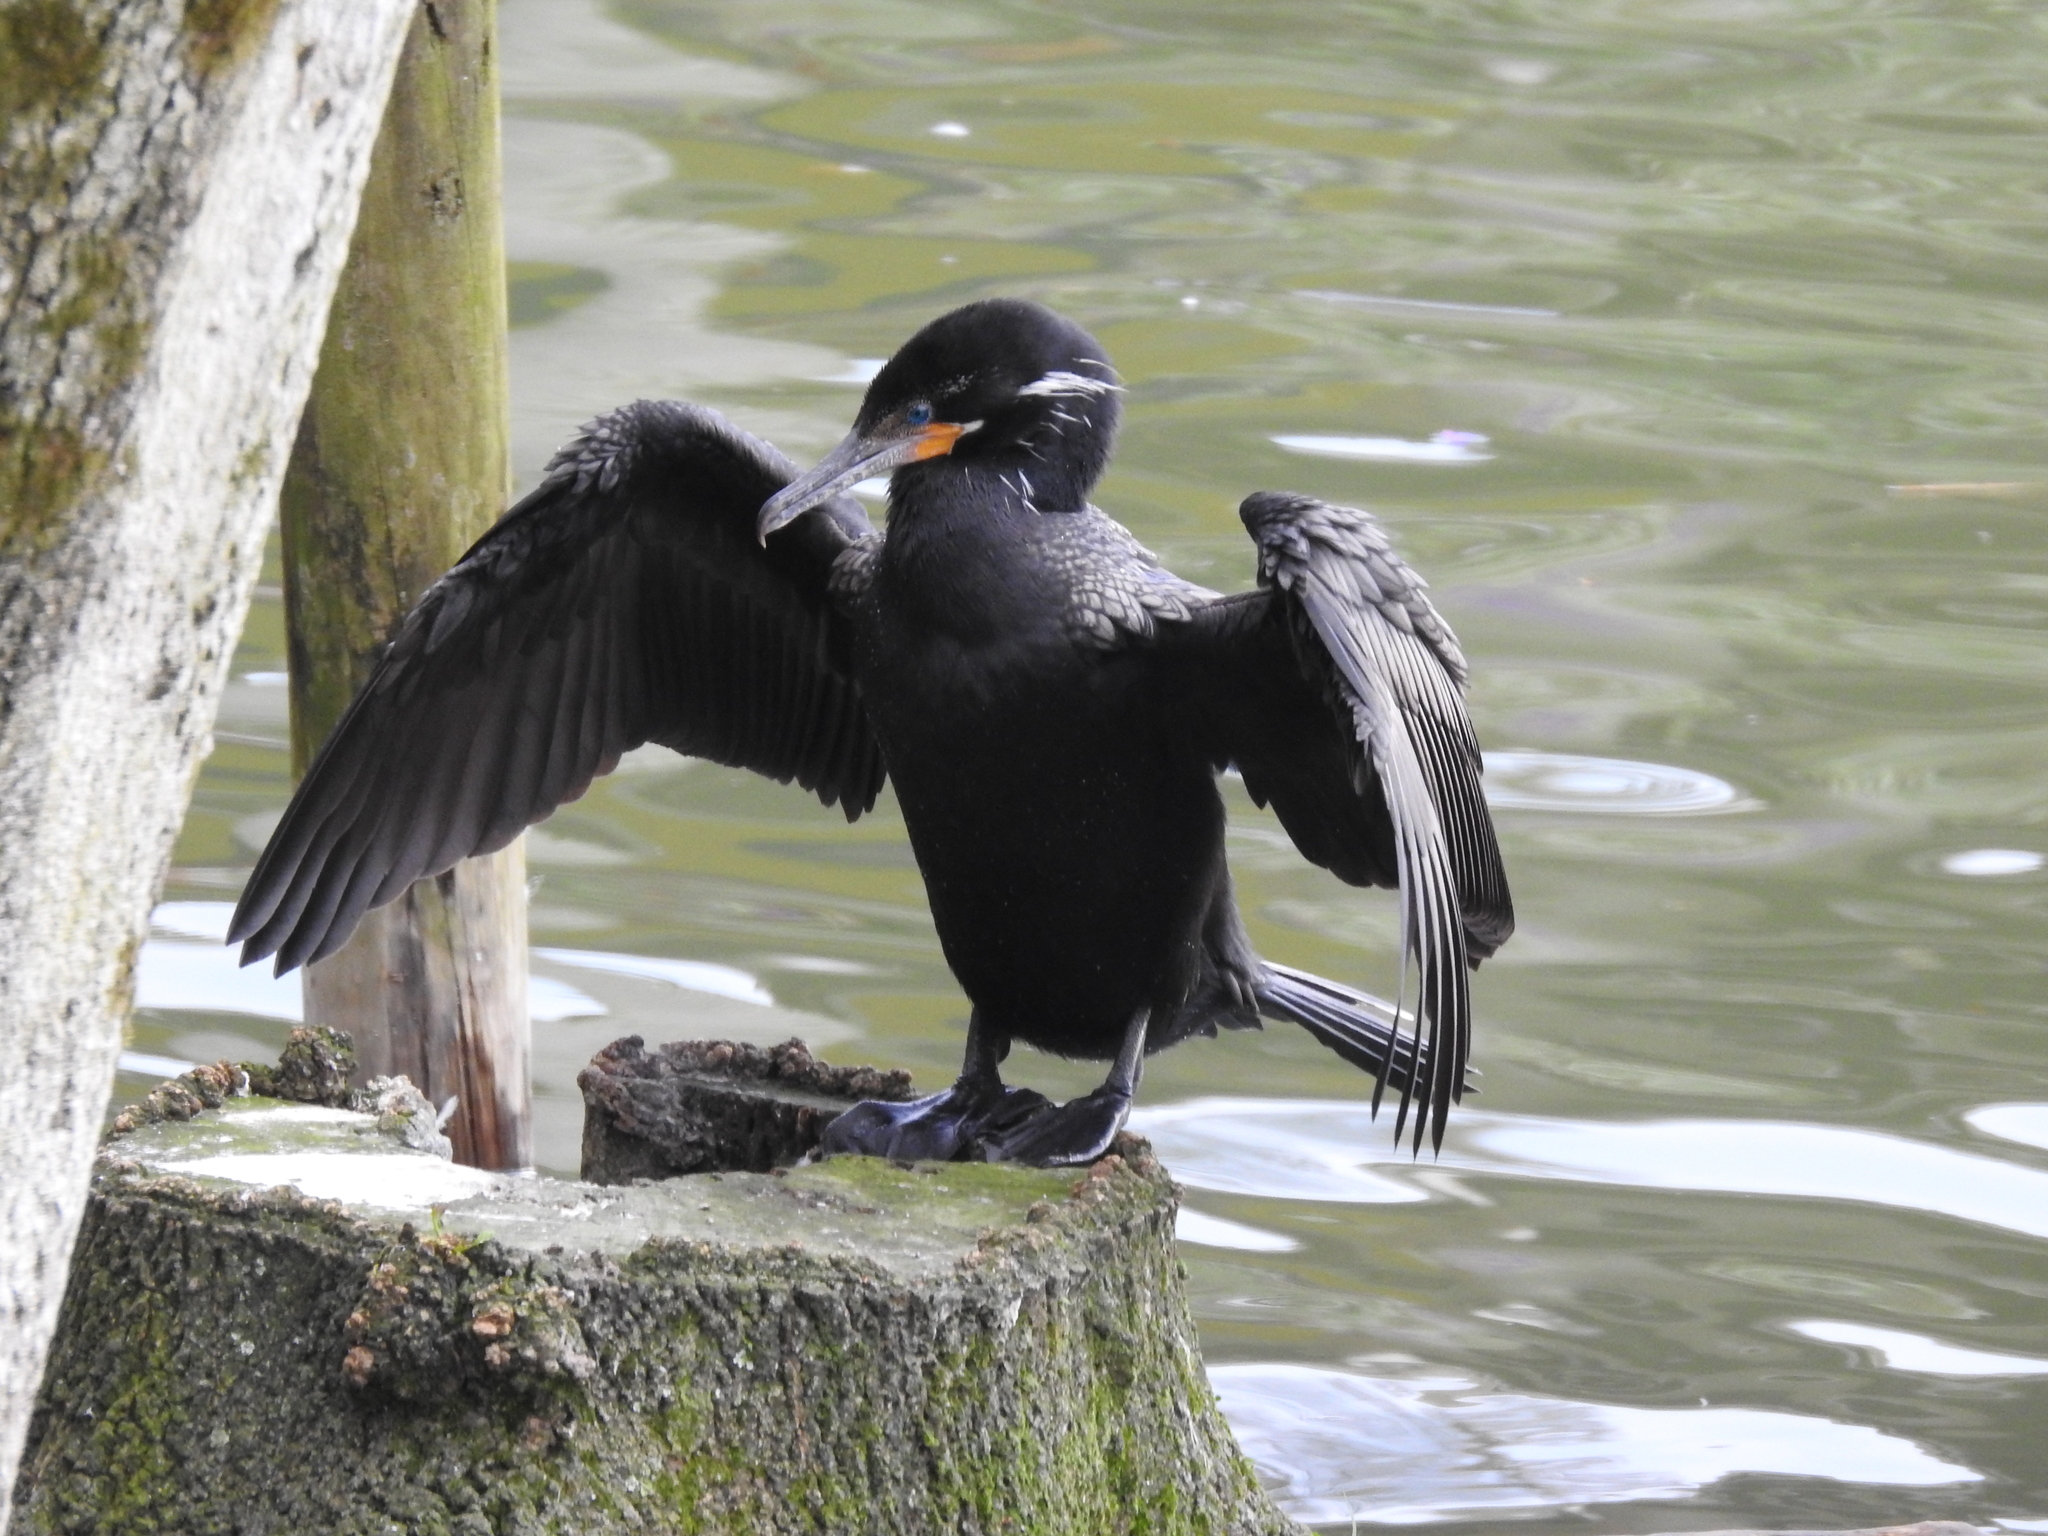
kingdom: Animalia
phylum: Chordata
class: Aves
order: Suliformes
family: Phalacrocoracidae
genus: Phalacrocorax
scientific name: Phalacrocorax brasilianus
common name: Neotropic cormorant
